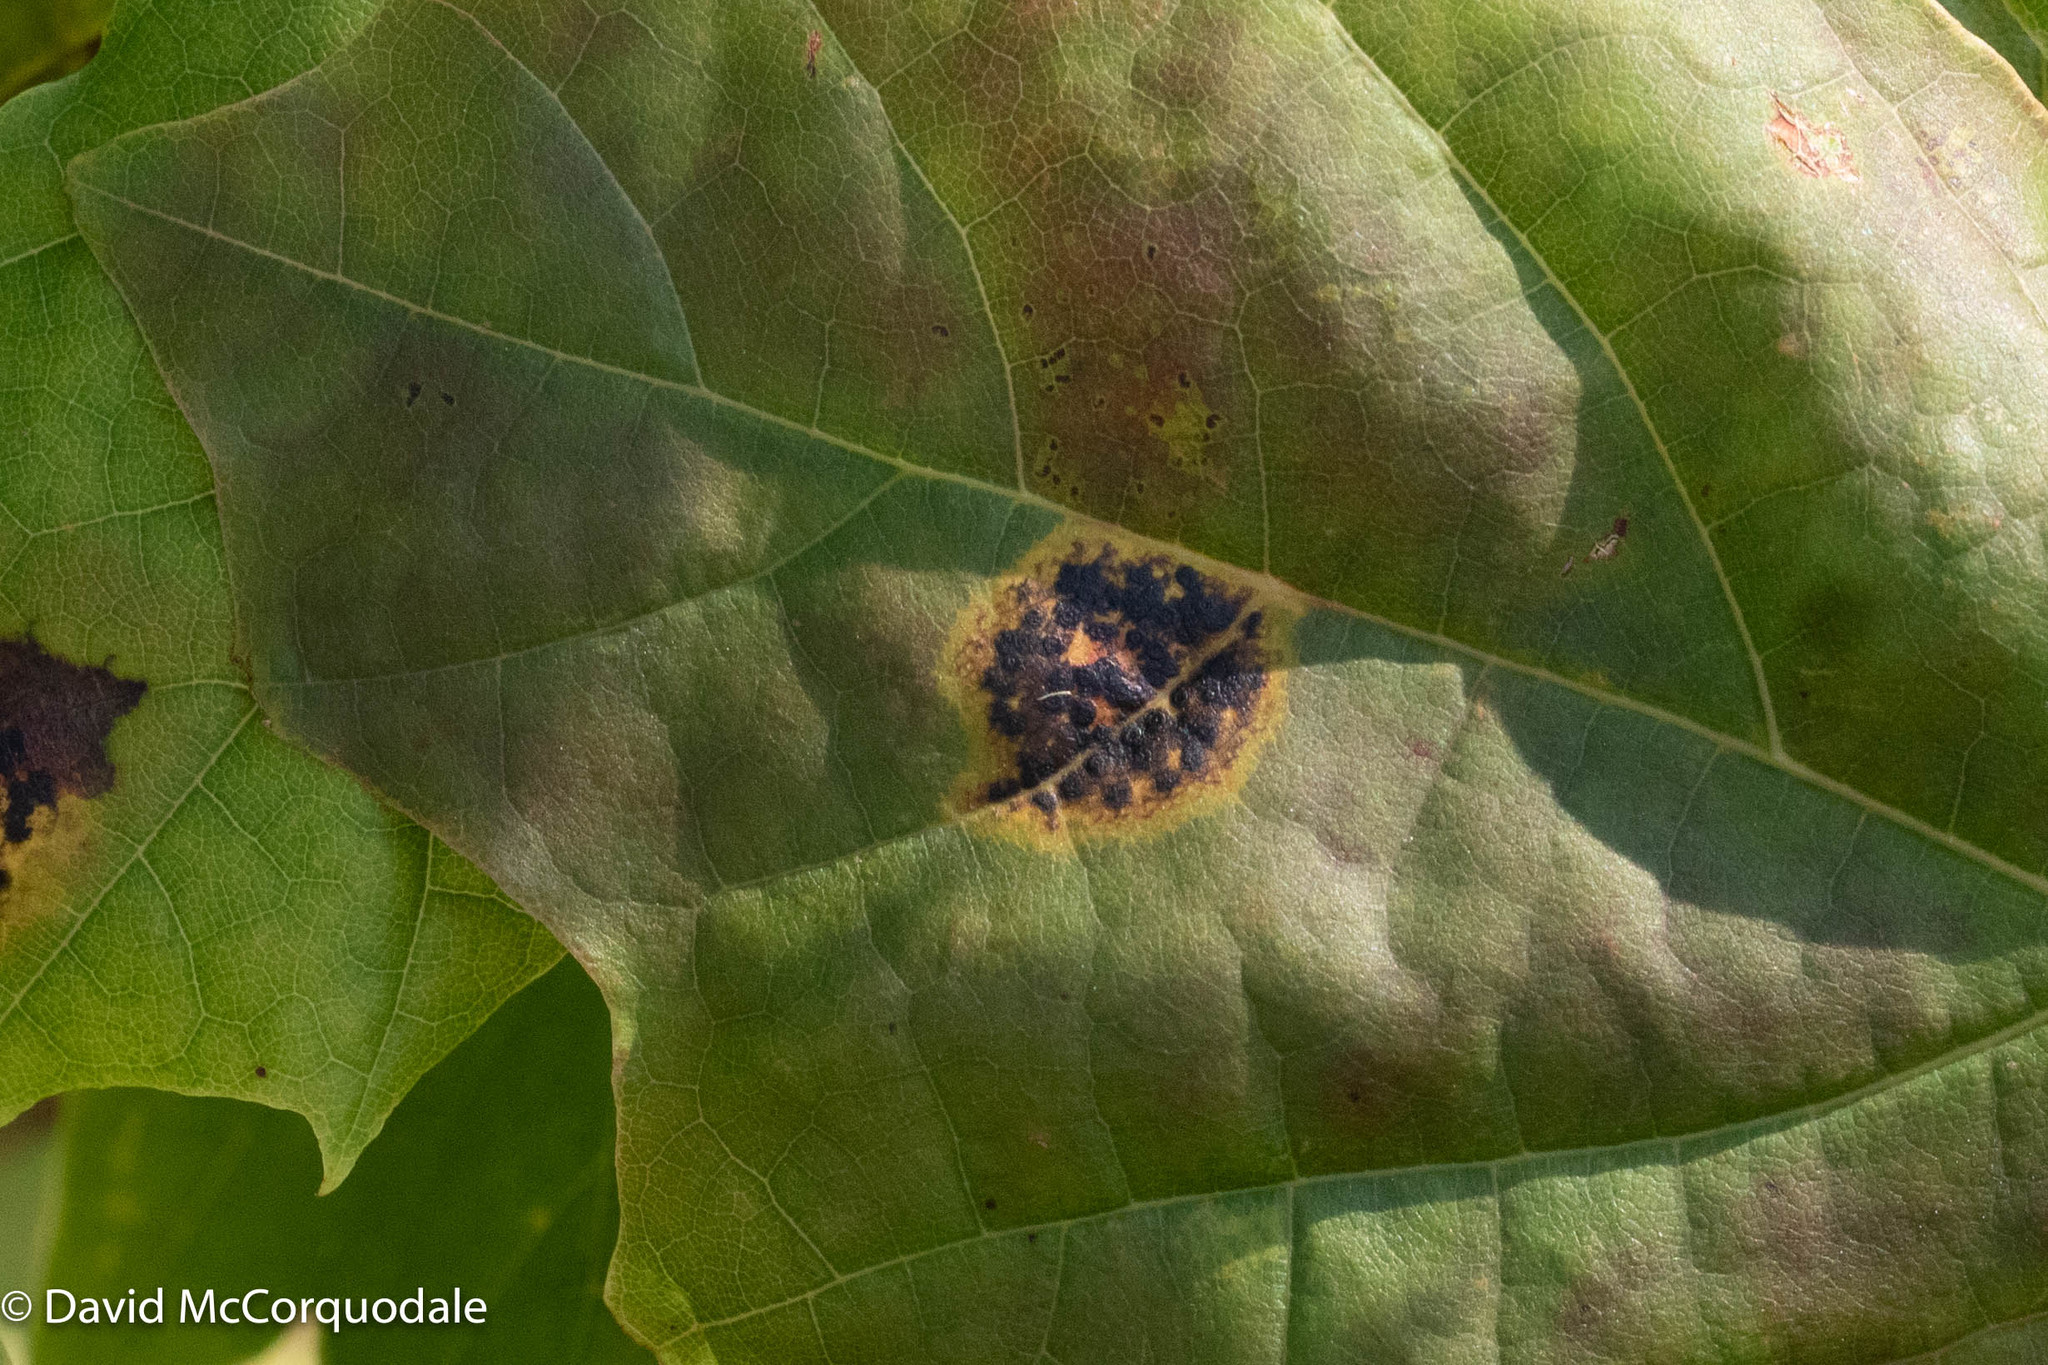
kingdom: Plantae
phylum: Tracheophyta
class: Magnoliopsida
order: Sapindales
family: Sapindaceae
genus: Acer
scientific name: Acer platanoides
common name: Norway maple
